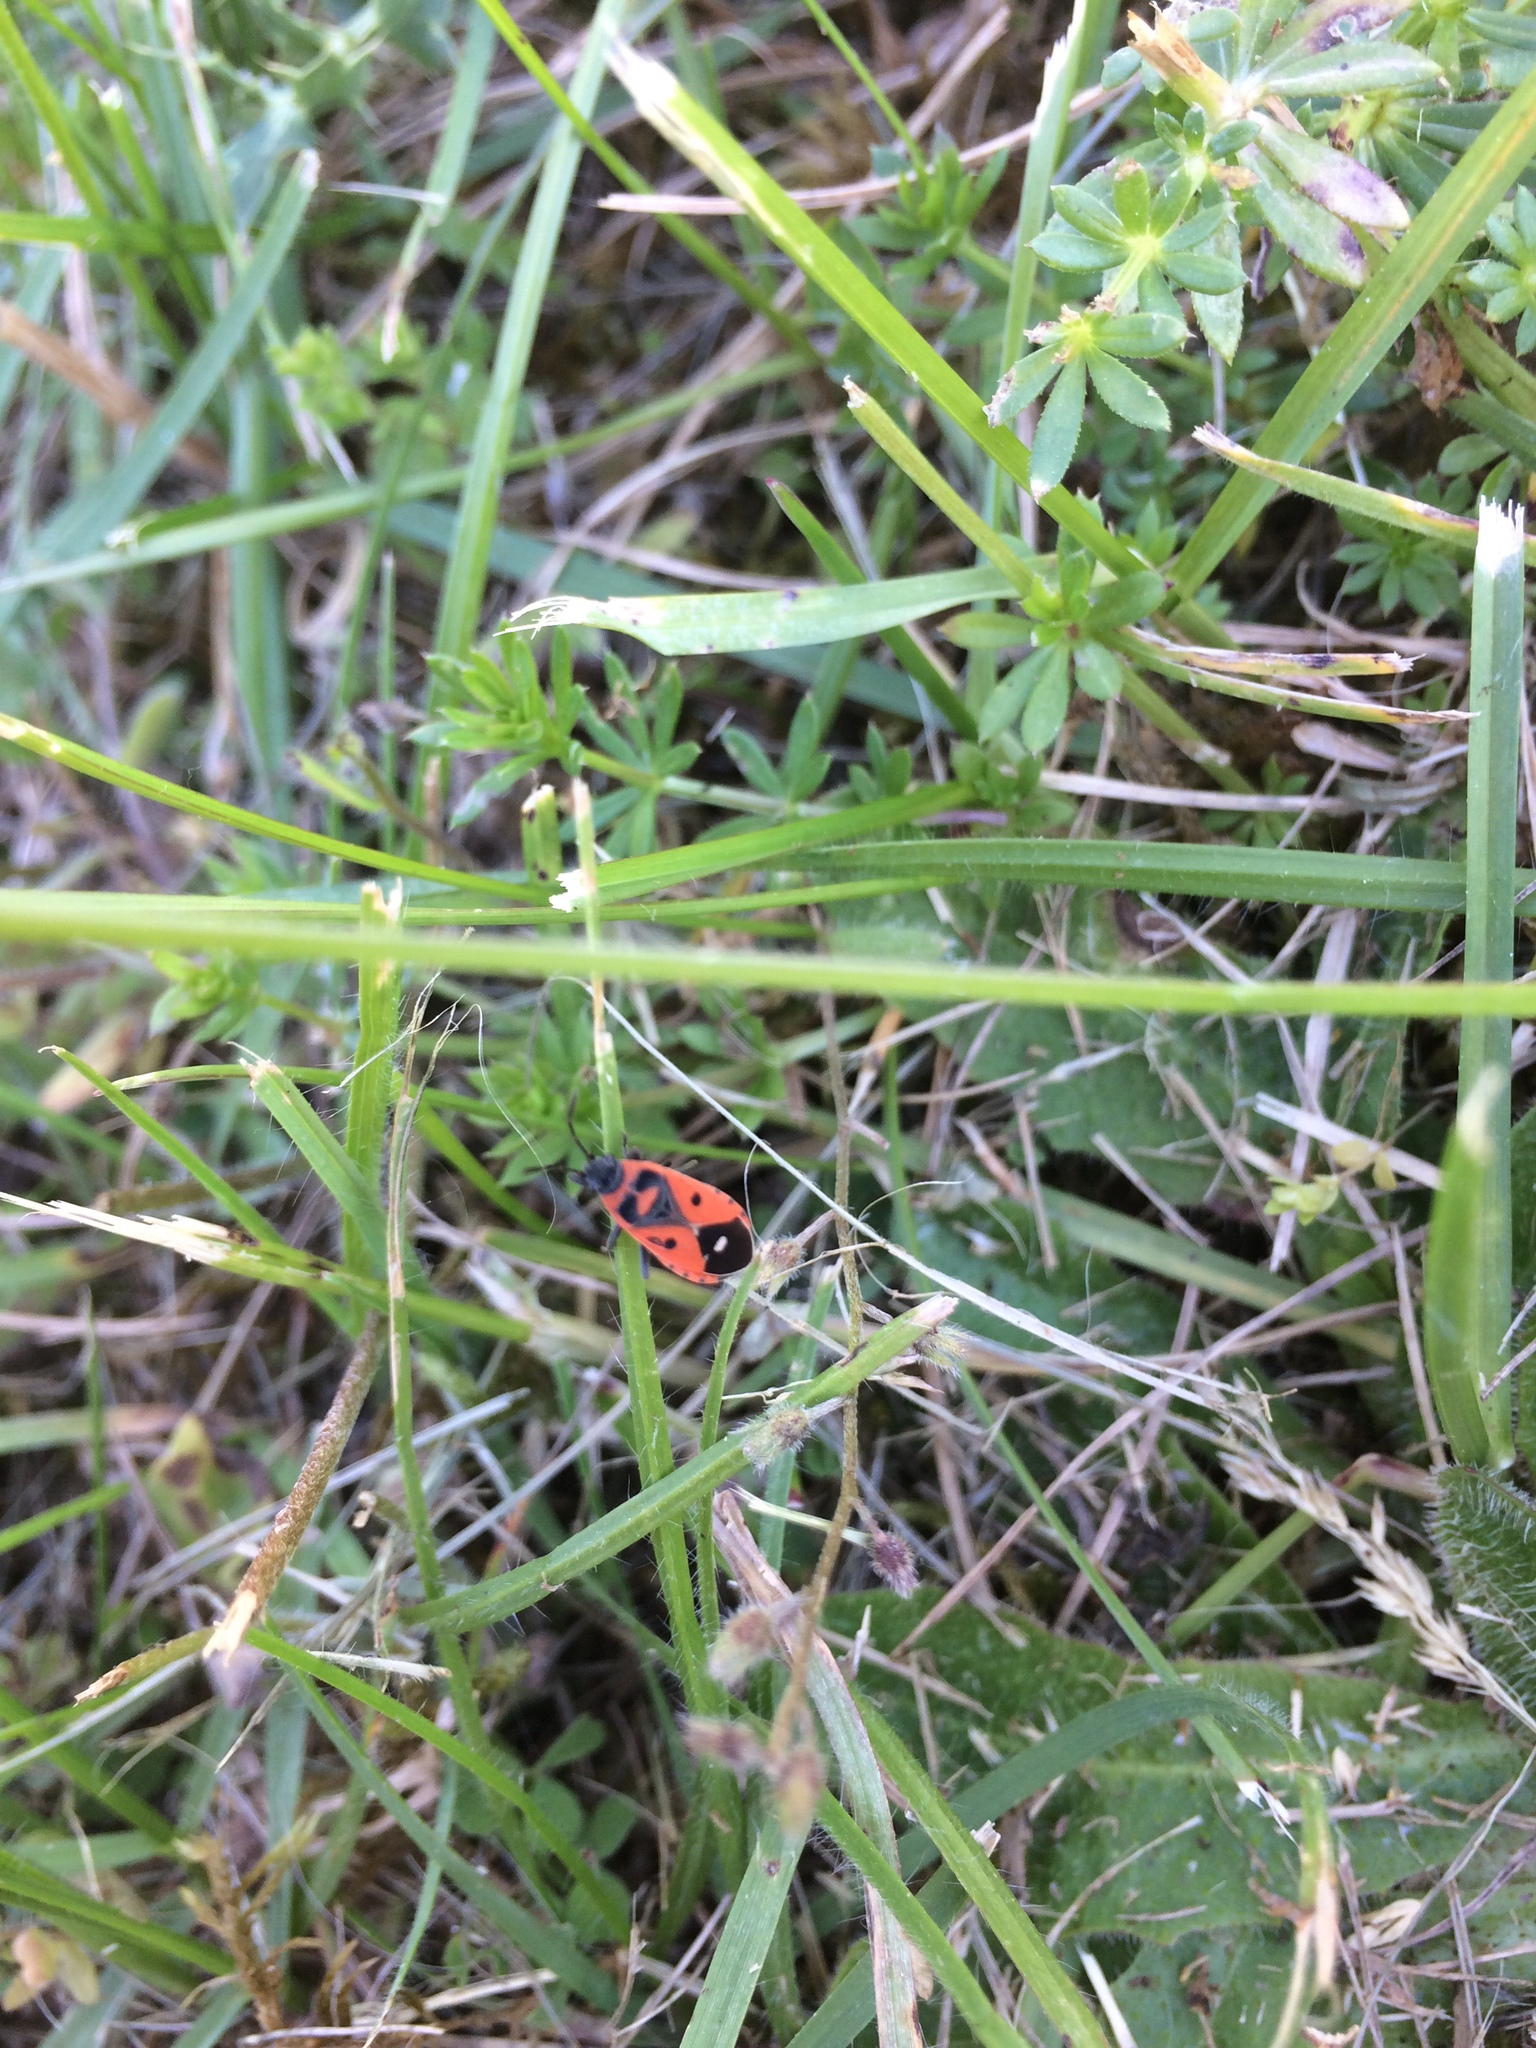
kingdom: Animalia
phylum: Arthropoda
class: Insecta
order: Hemiptera
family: Lygaeidae
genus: Melanocoryphus
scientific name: Melanocoryphus albomaculatus
